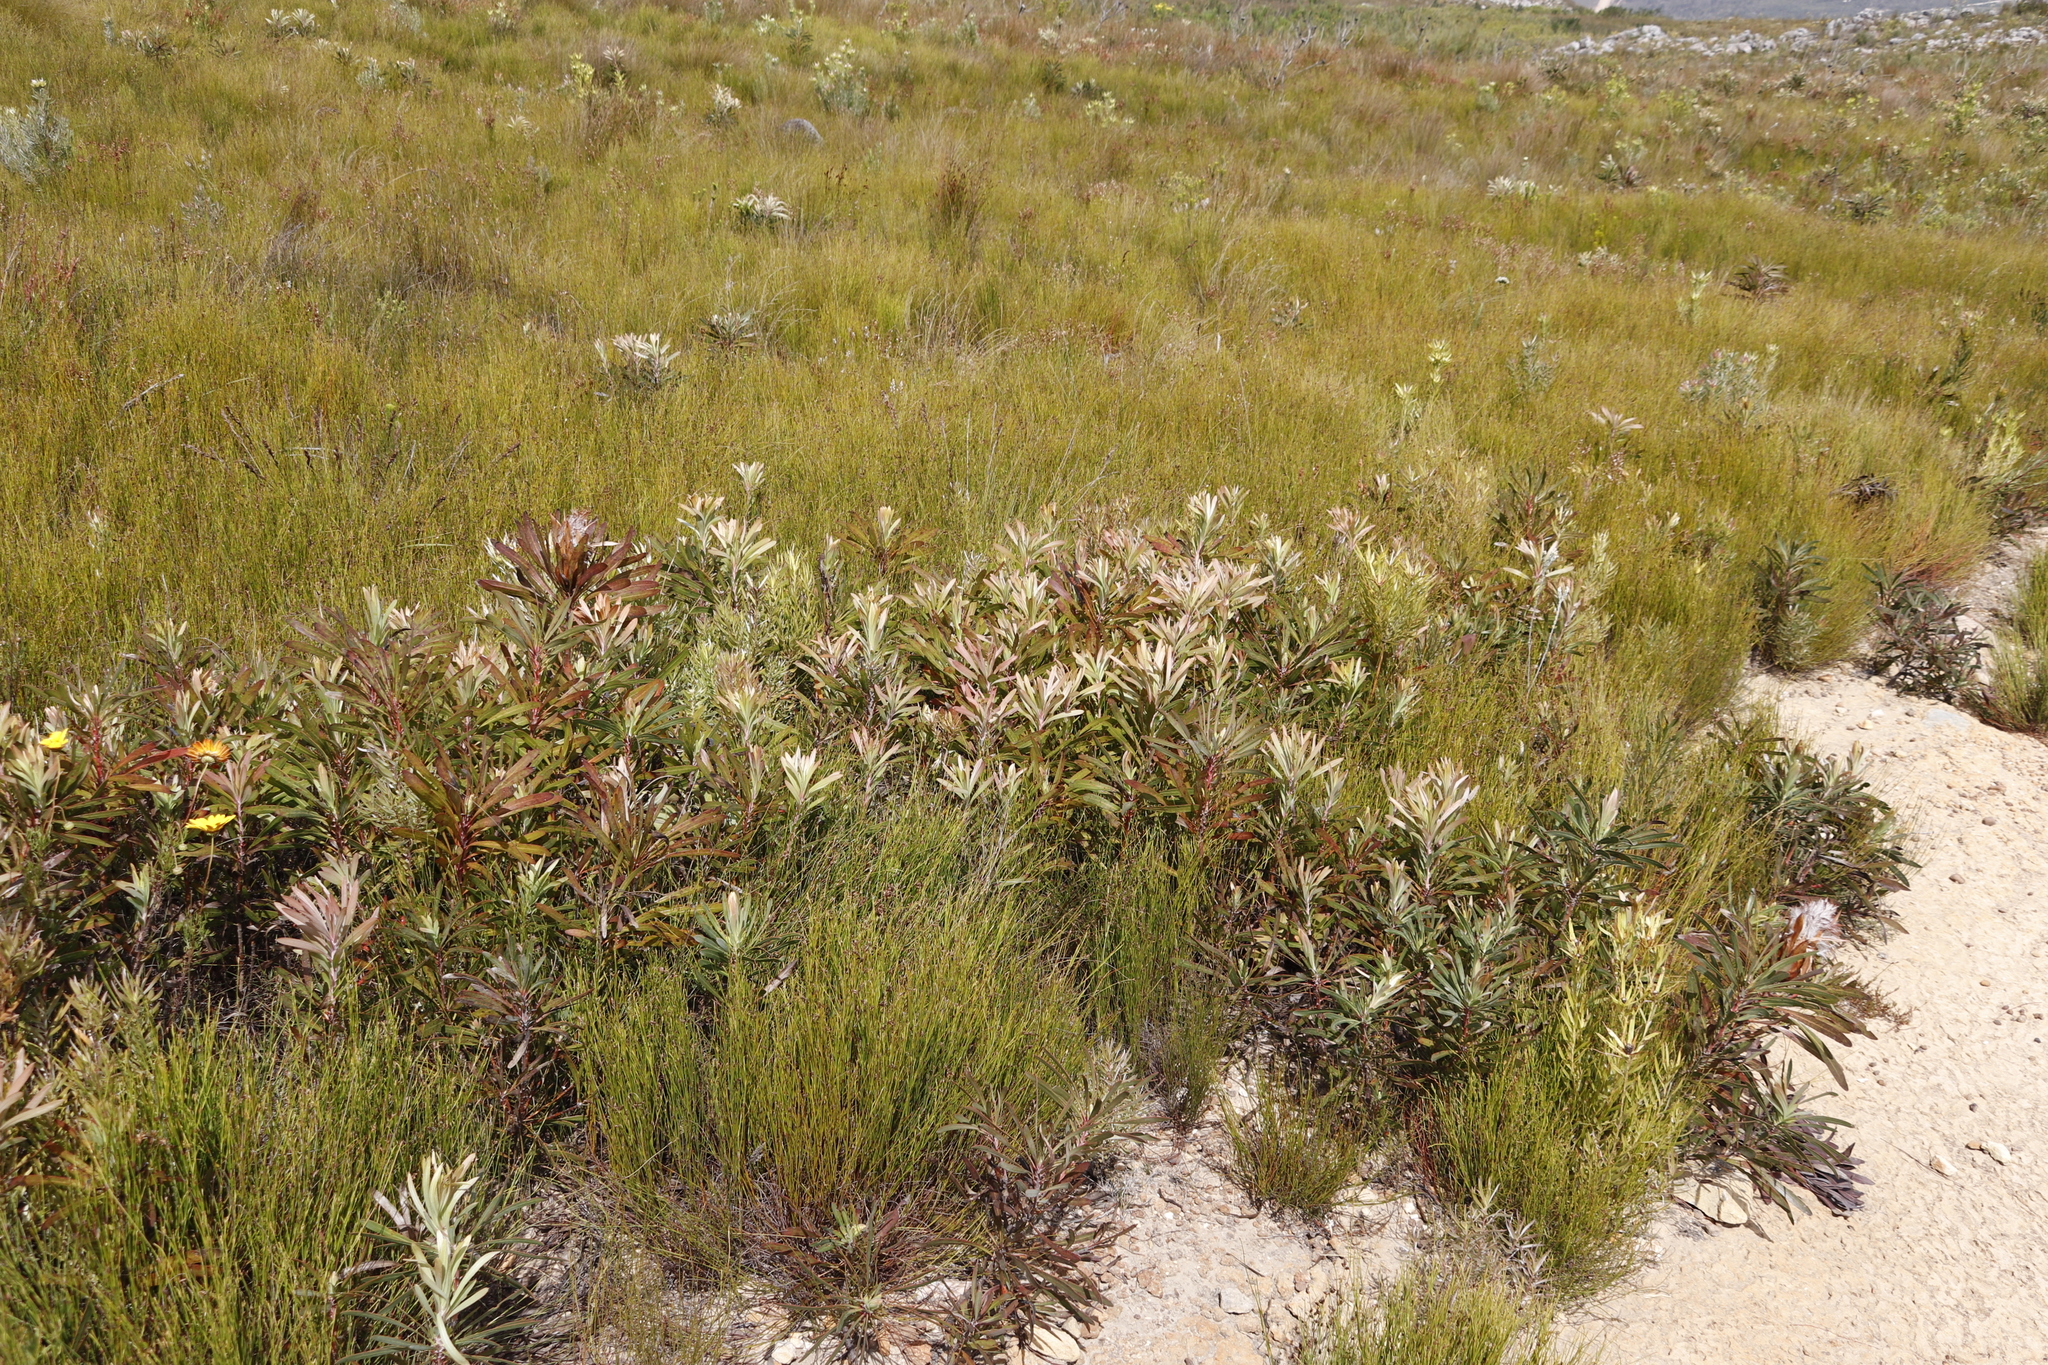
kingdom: Plantae
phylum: Tracheophyta
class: Magnoliopsida
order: Proteales
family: Proteaceae
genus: Protea
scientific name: Protea longifolia
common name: Long-leaf sugarbush
